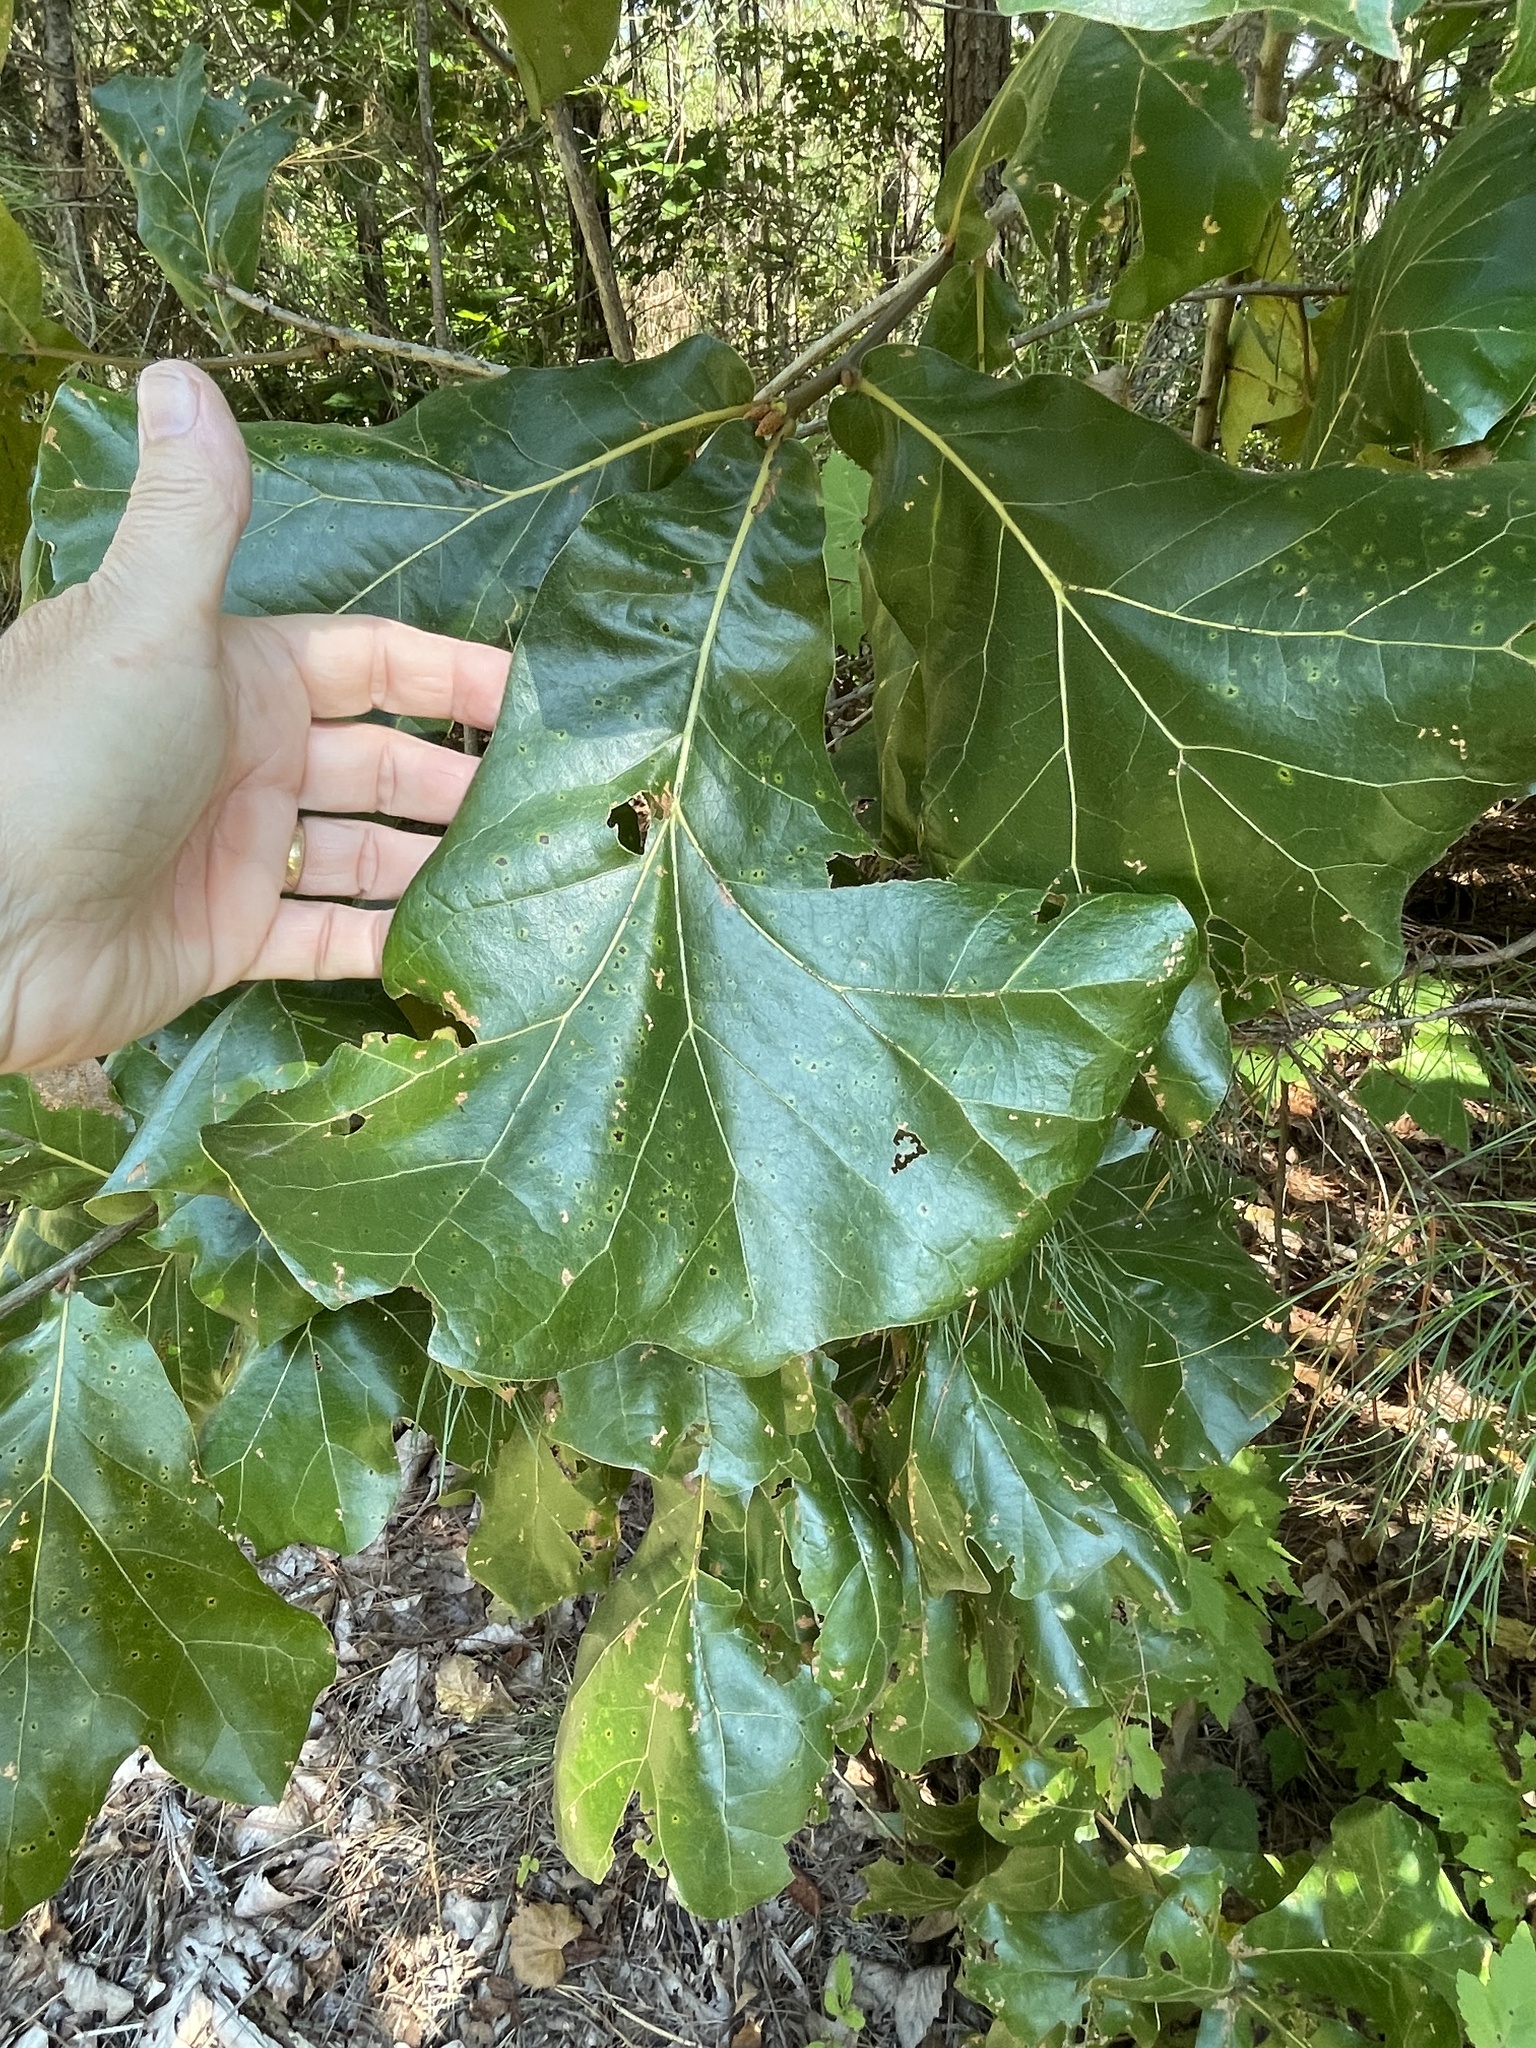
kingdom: Plantae
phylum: Tracheophyta
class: Magnoliopsida
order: Fagales
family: Fagaceae
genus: Quercus
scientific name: Quercus marilandica
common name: Blackjack oak
